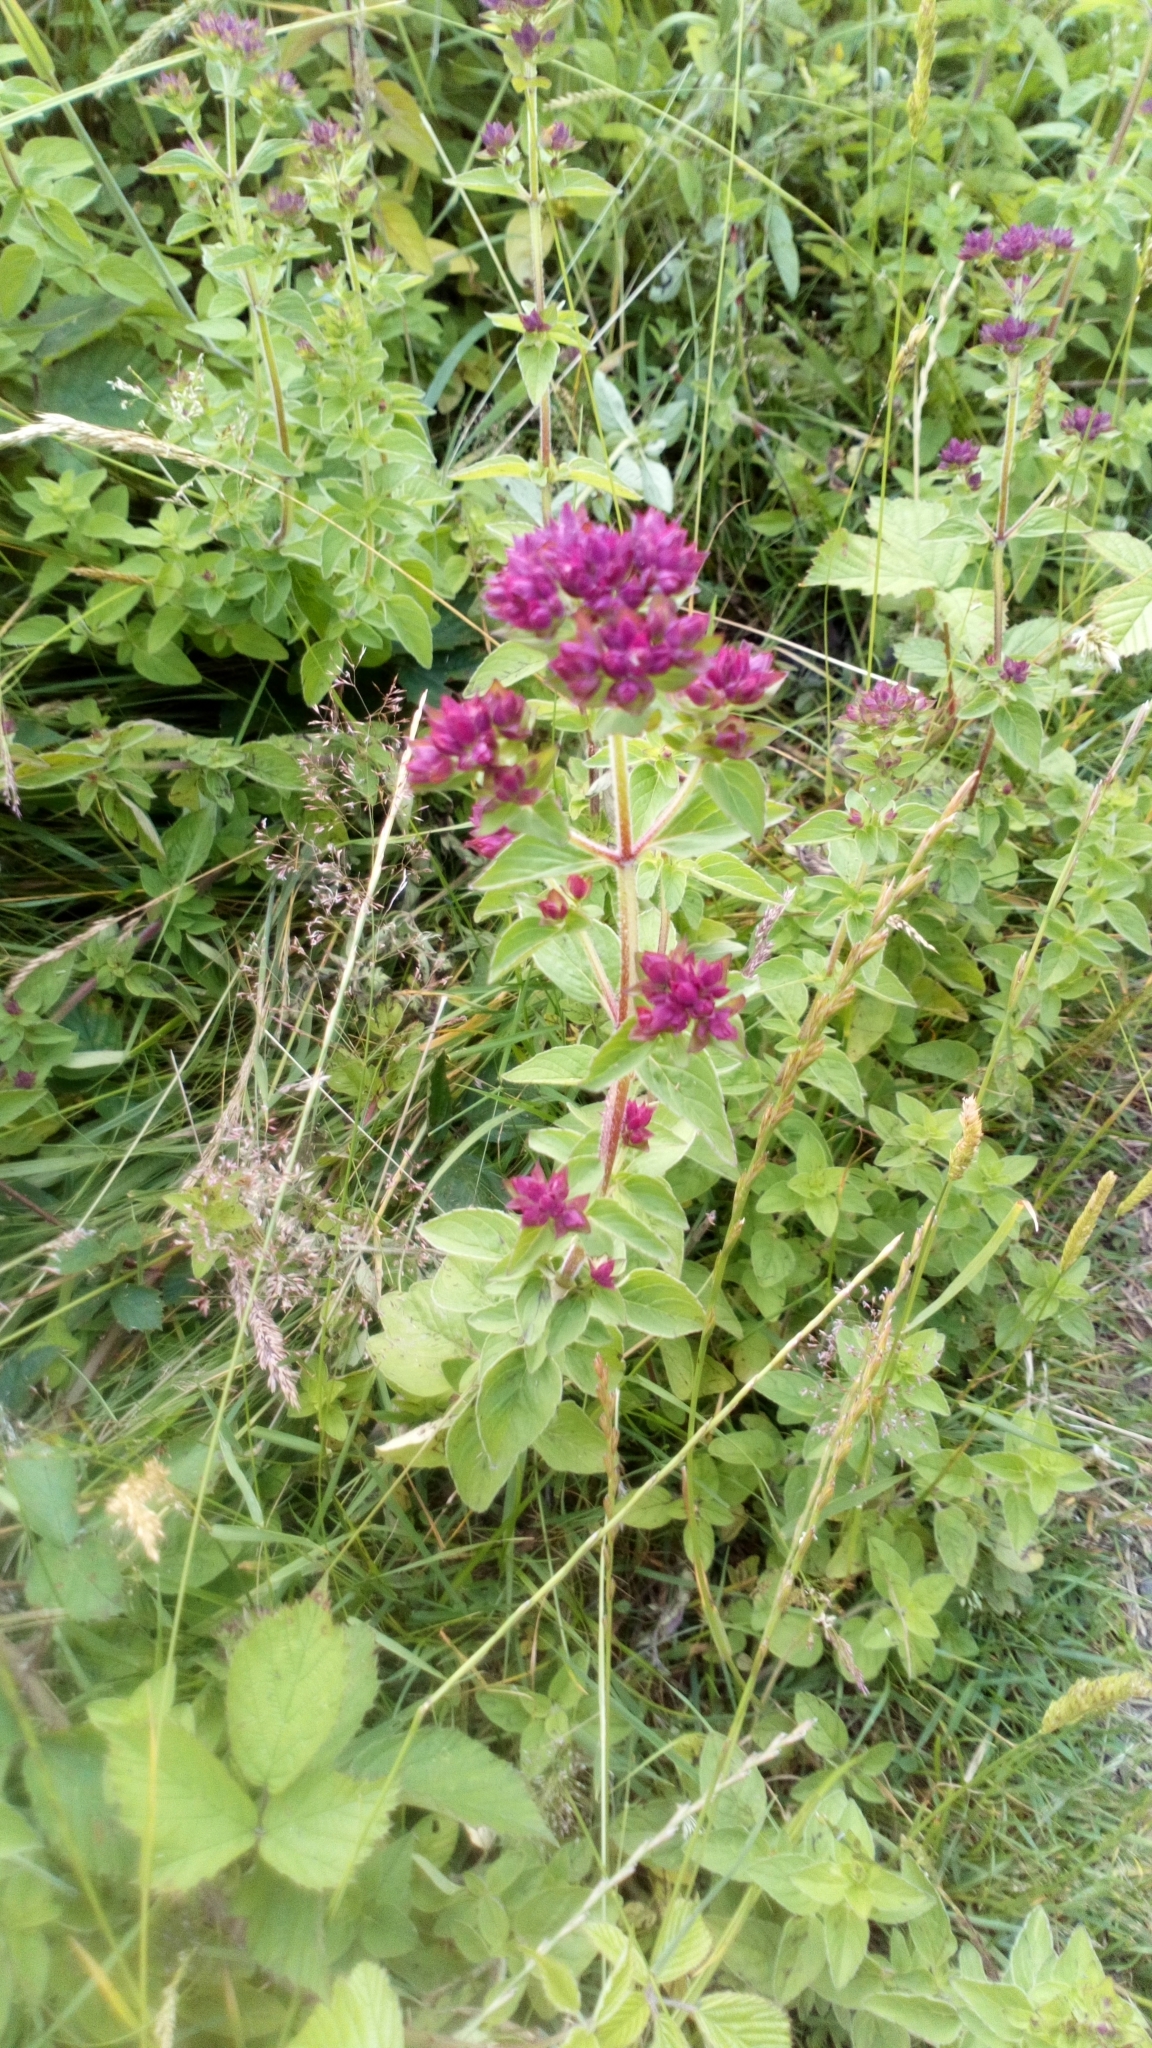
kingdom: Plantae
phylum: Tracheophyta
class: Magnoliopsida
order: Lamiales
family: Lamiaceae
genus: Origanum
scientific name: Origanum vulgare
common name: Wild marjoram
